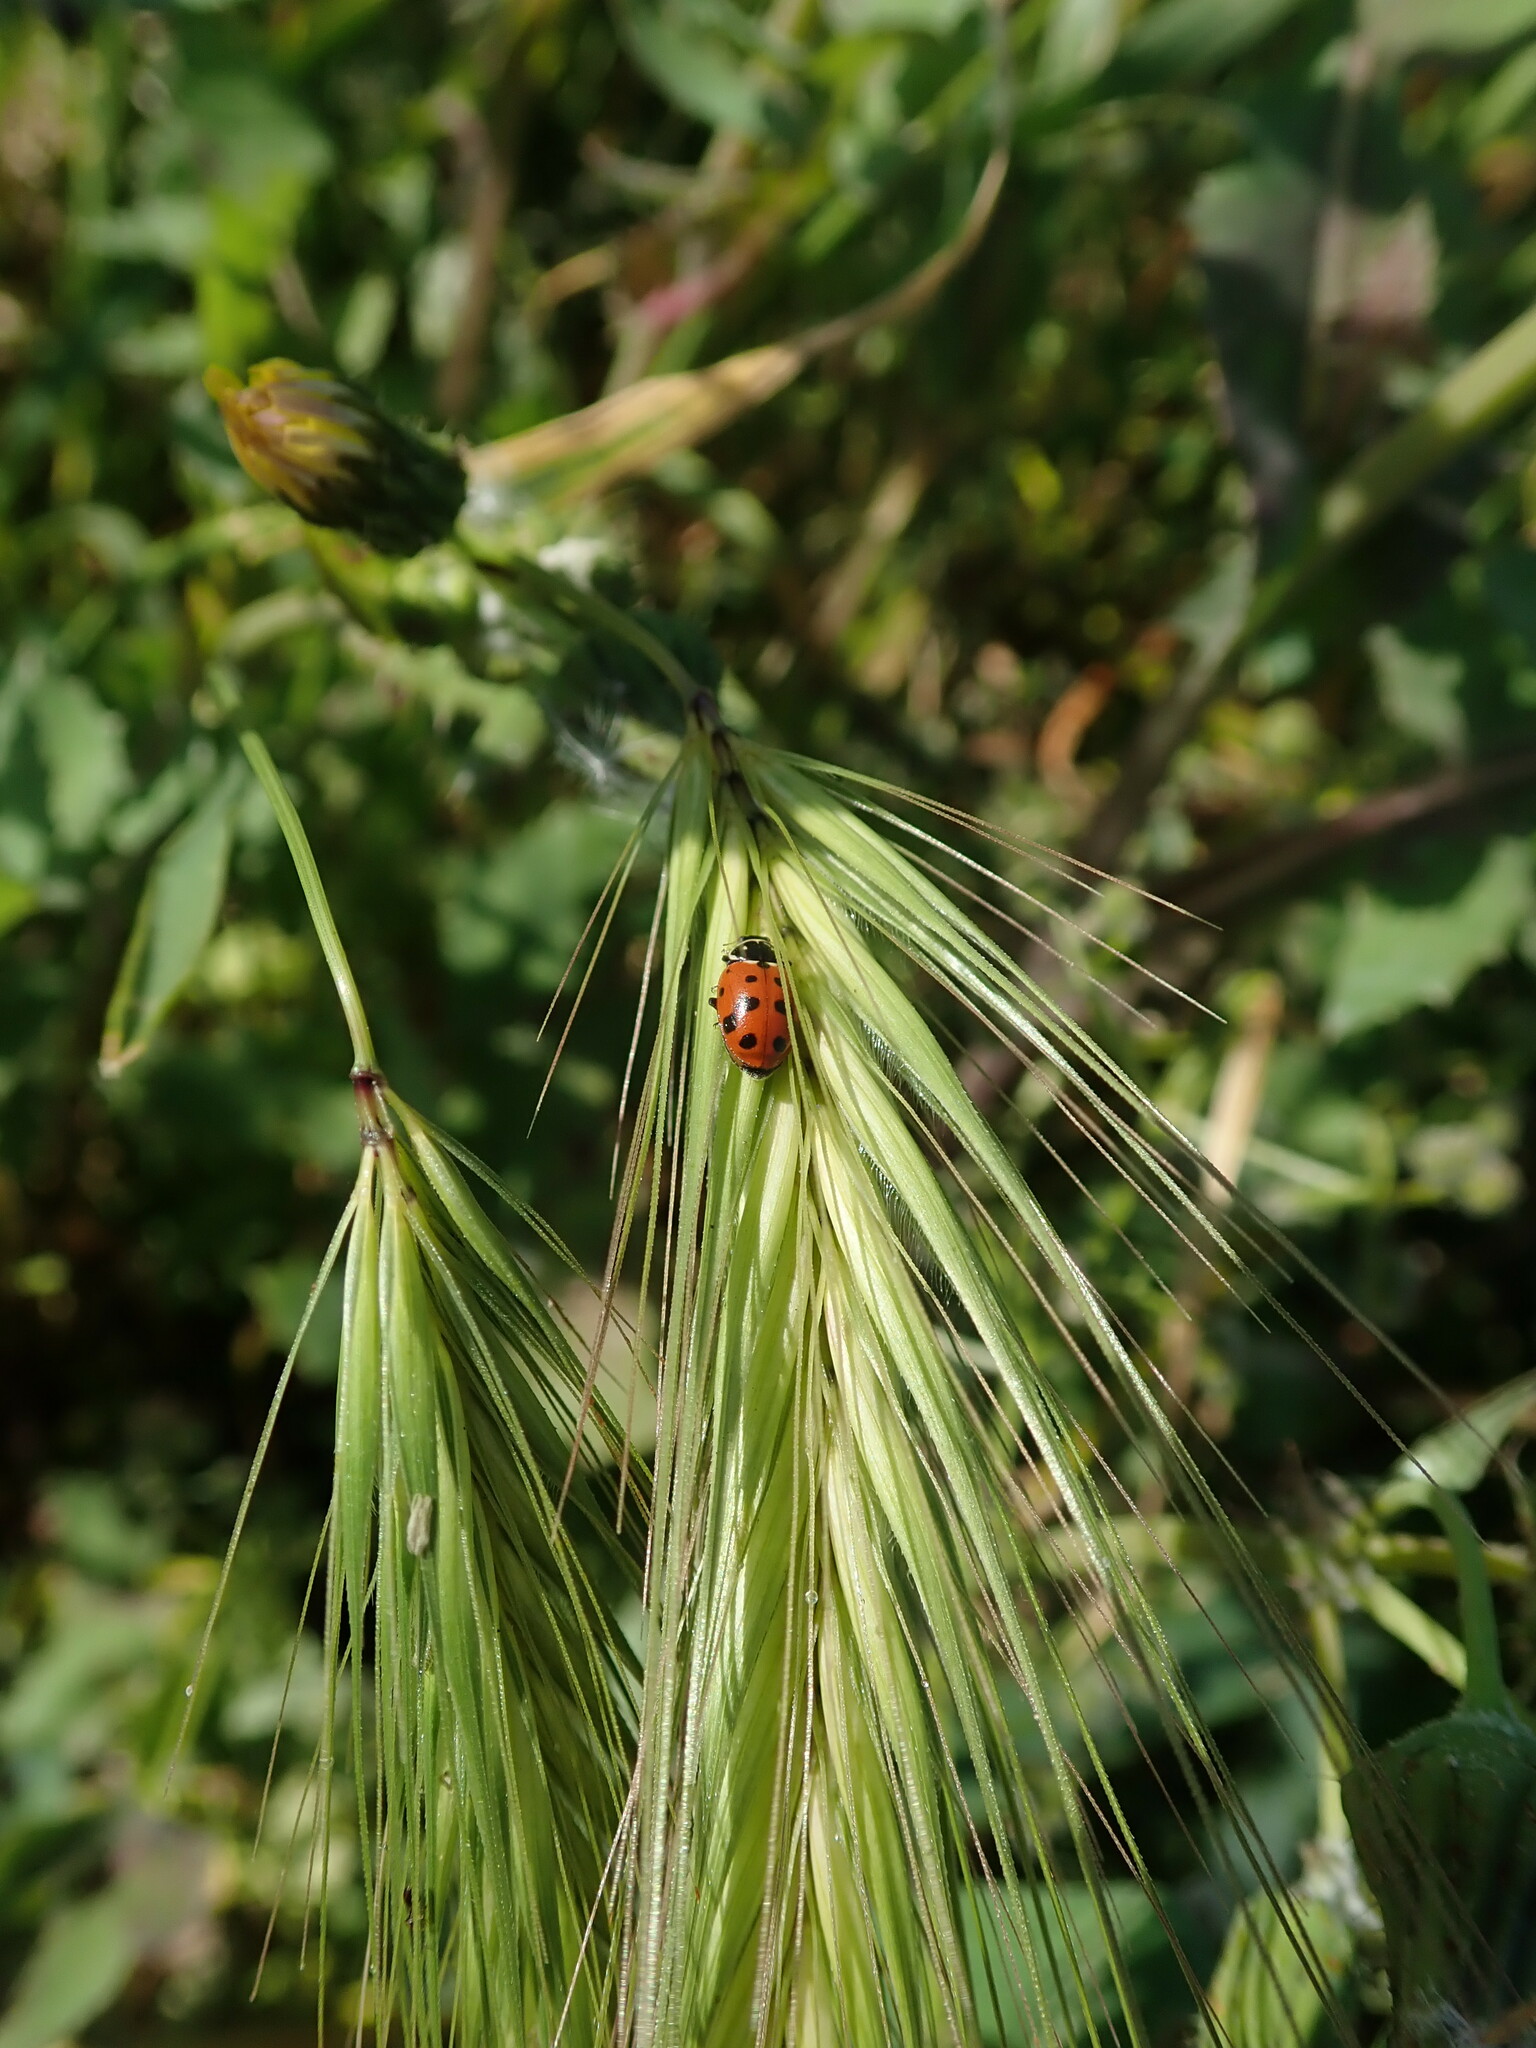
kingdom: Animalia
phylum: Arthropoda
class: Insecta
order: Coleoptera
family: Coccinellidae
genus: Hippodamia
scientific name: Hippodamia variegata
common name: Ladybird beetle
